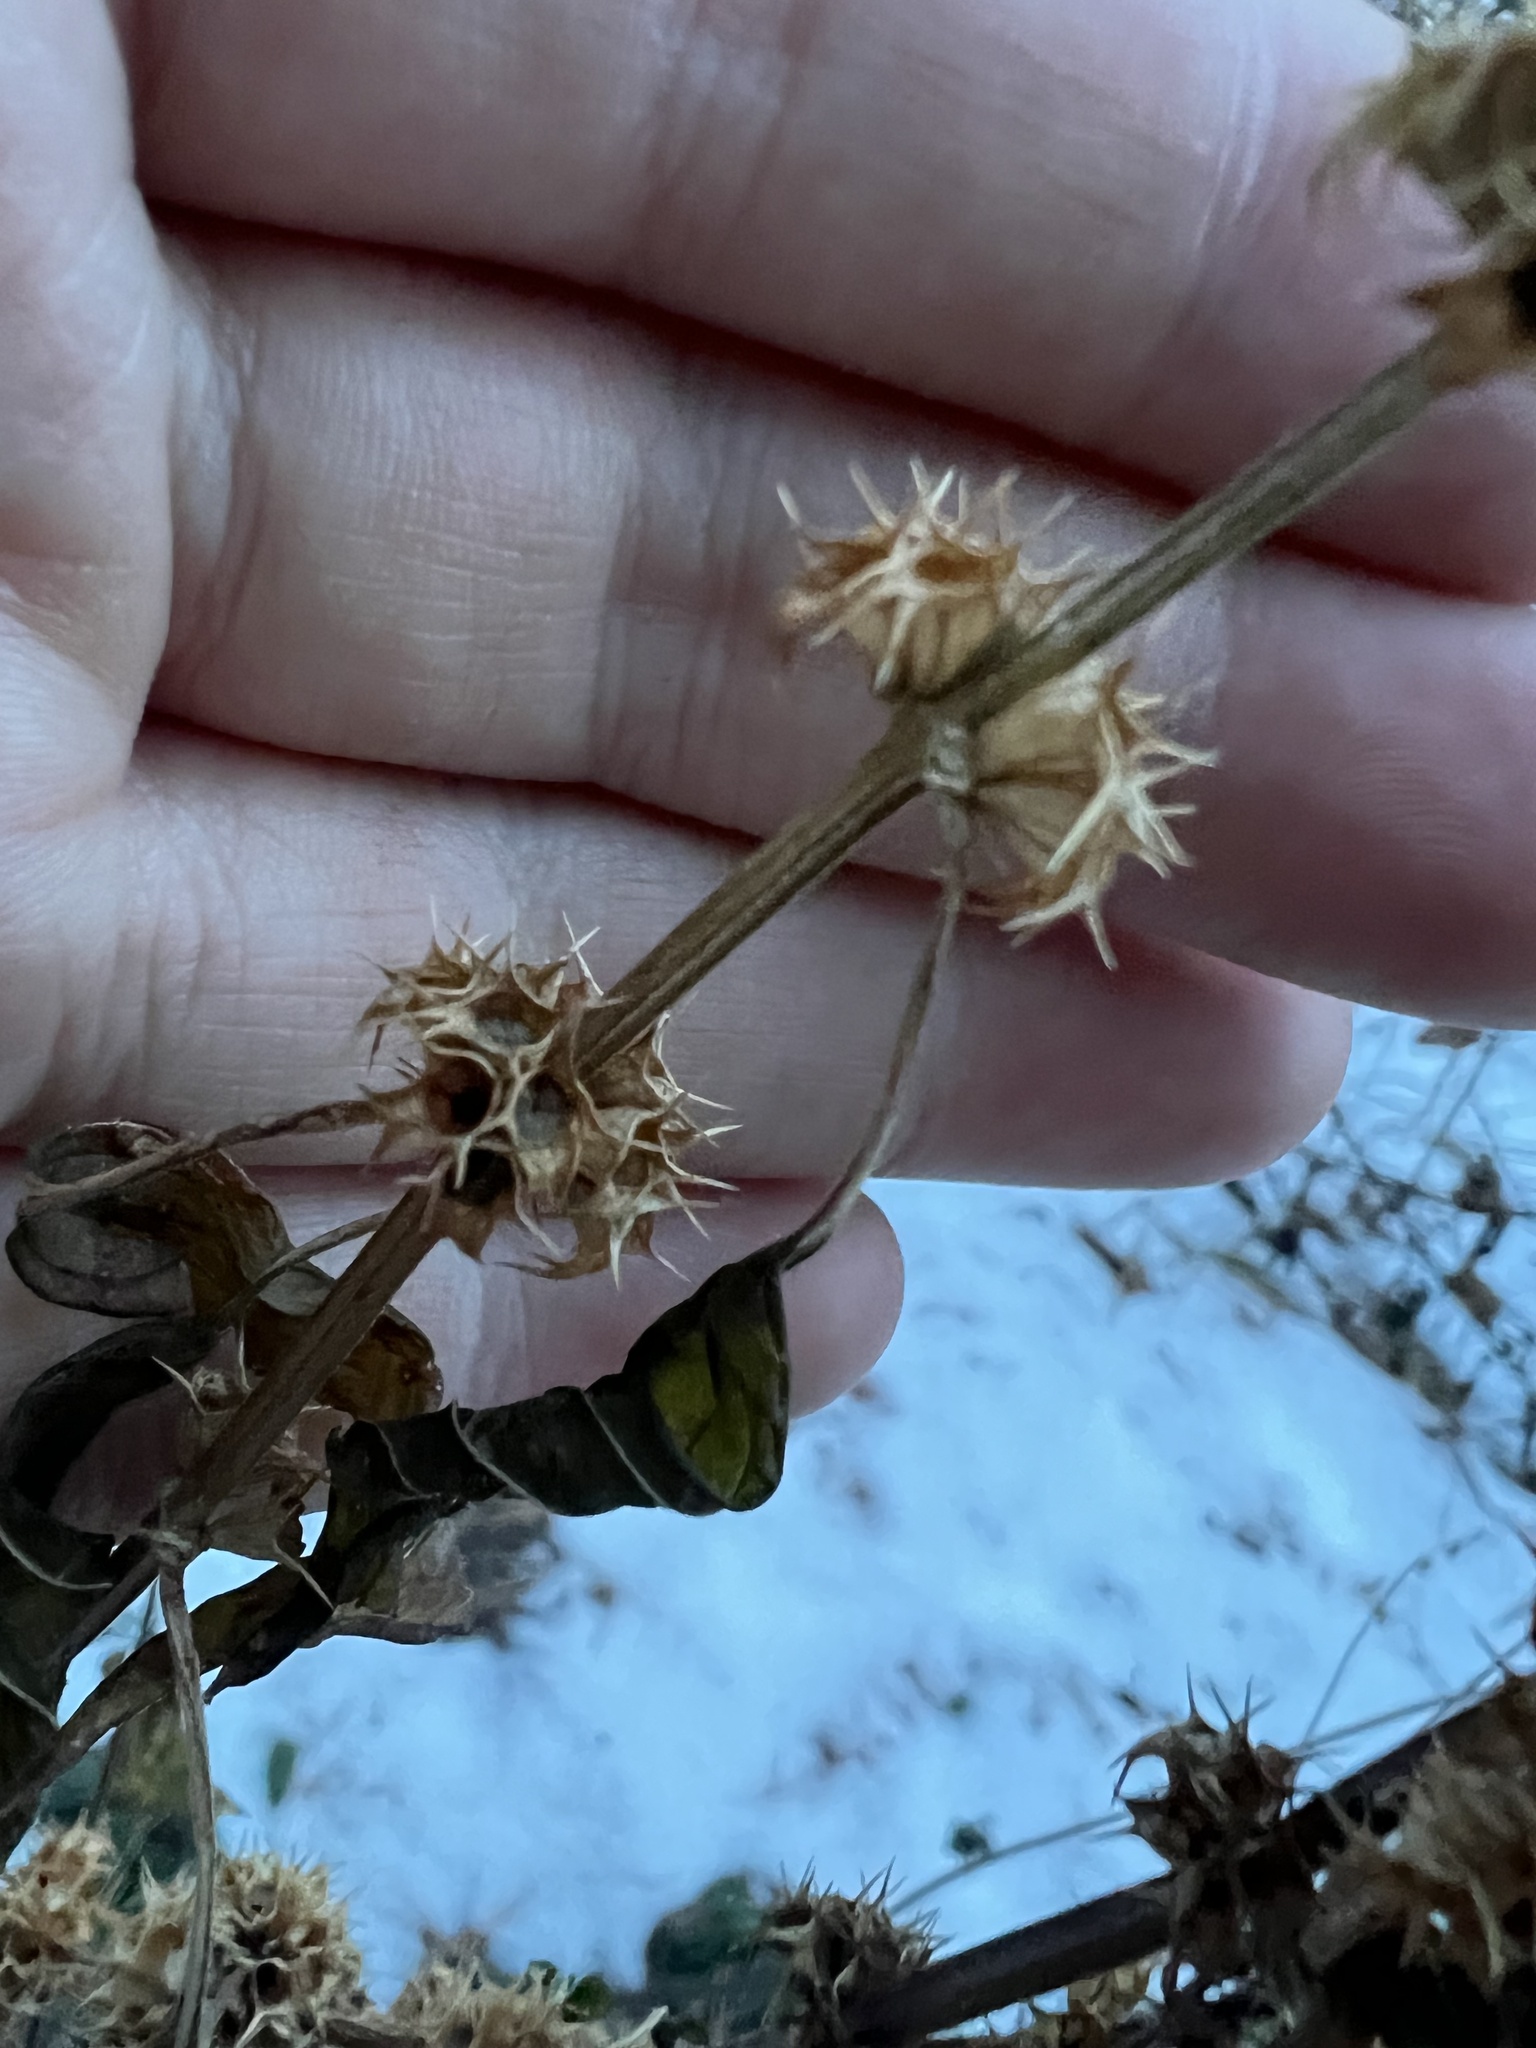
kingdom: Plantae
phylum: Tracheophyta
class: Magnoliopsida
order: Lamiales
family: Lamiaceae
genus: Leonurus
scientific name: Leonurus cardiaca
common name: Motherwort
